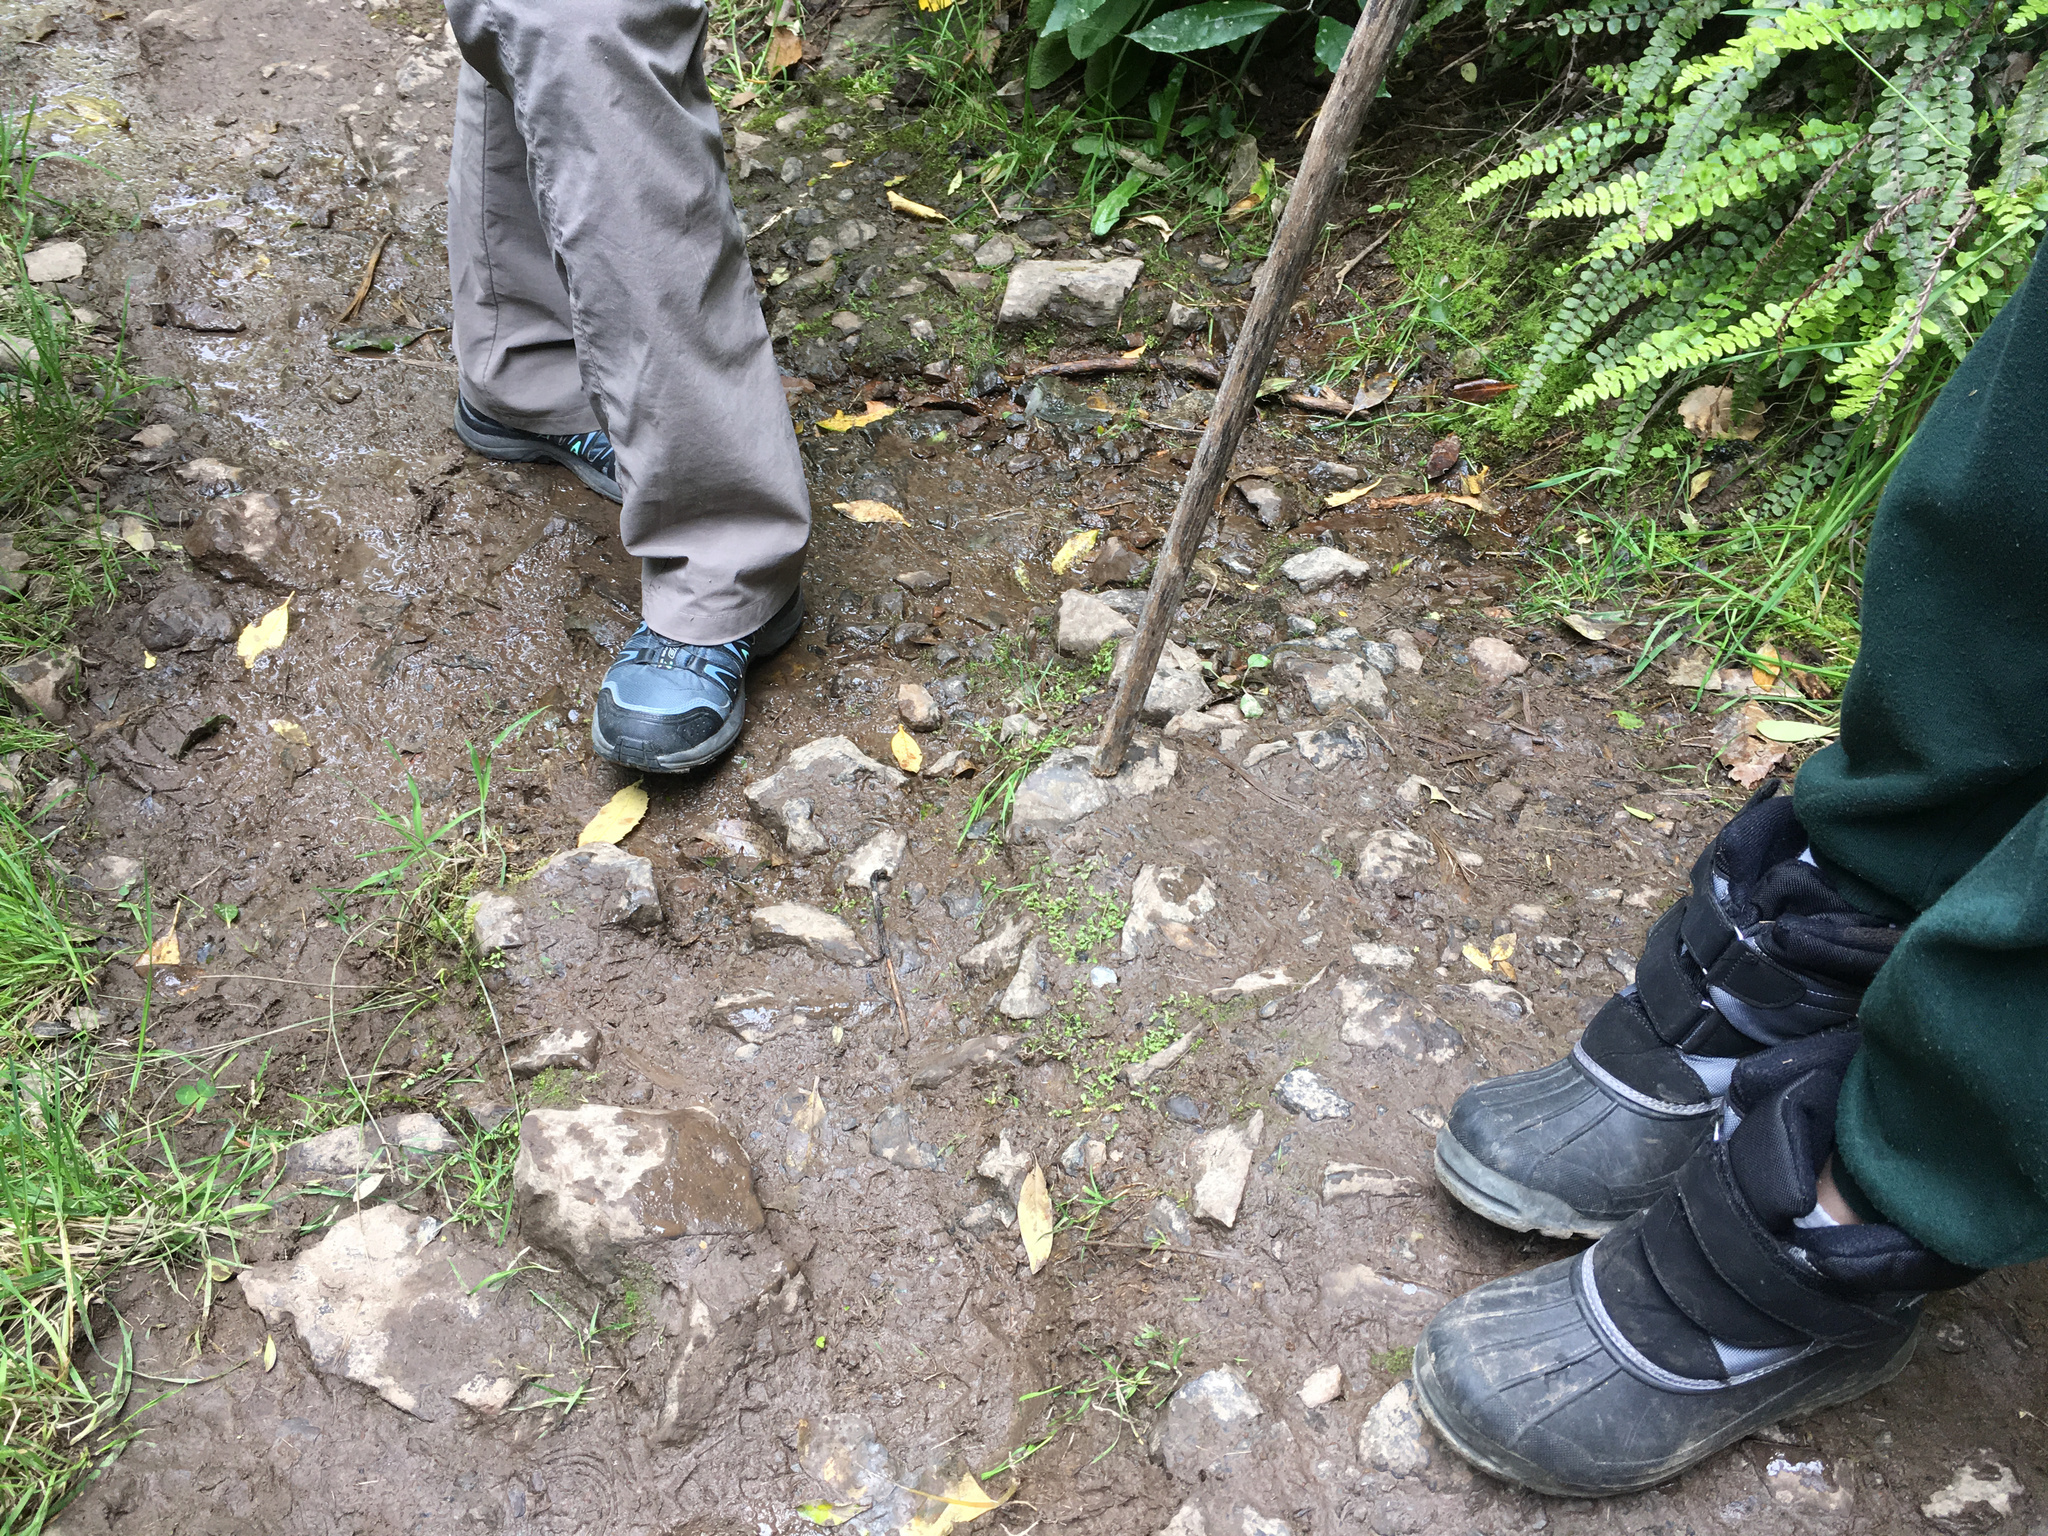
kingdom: Plantae
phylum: Tracheophyta
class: Magnoliopsida
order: Asterales
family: Asteraceae
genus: Leptinella
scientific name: Leptinella nana
